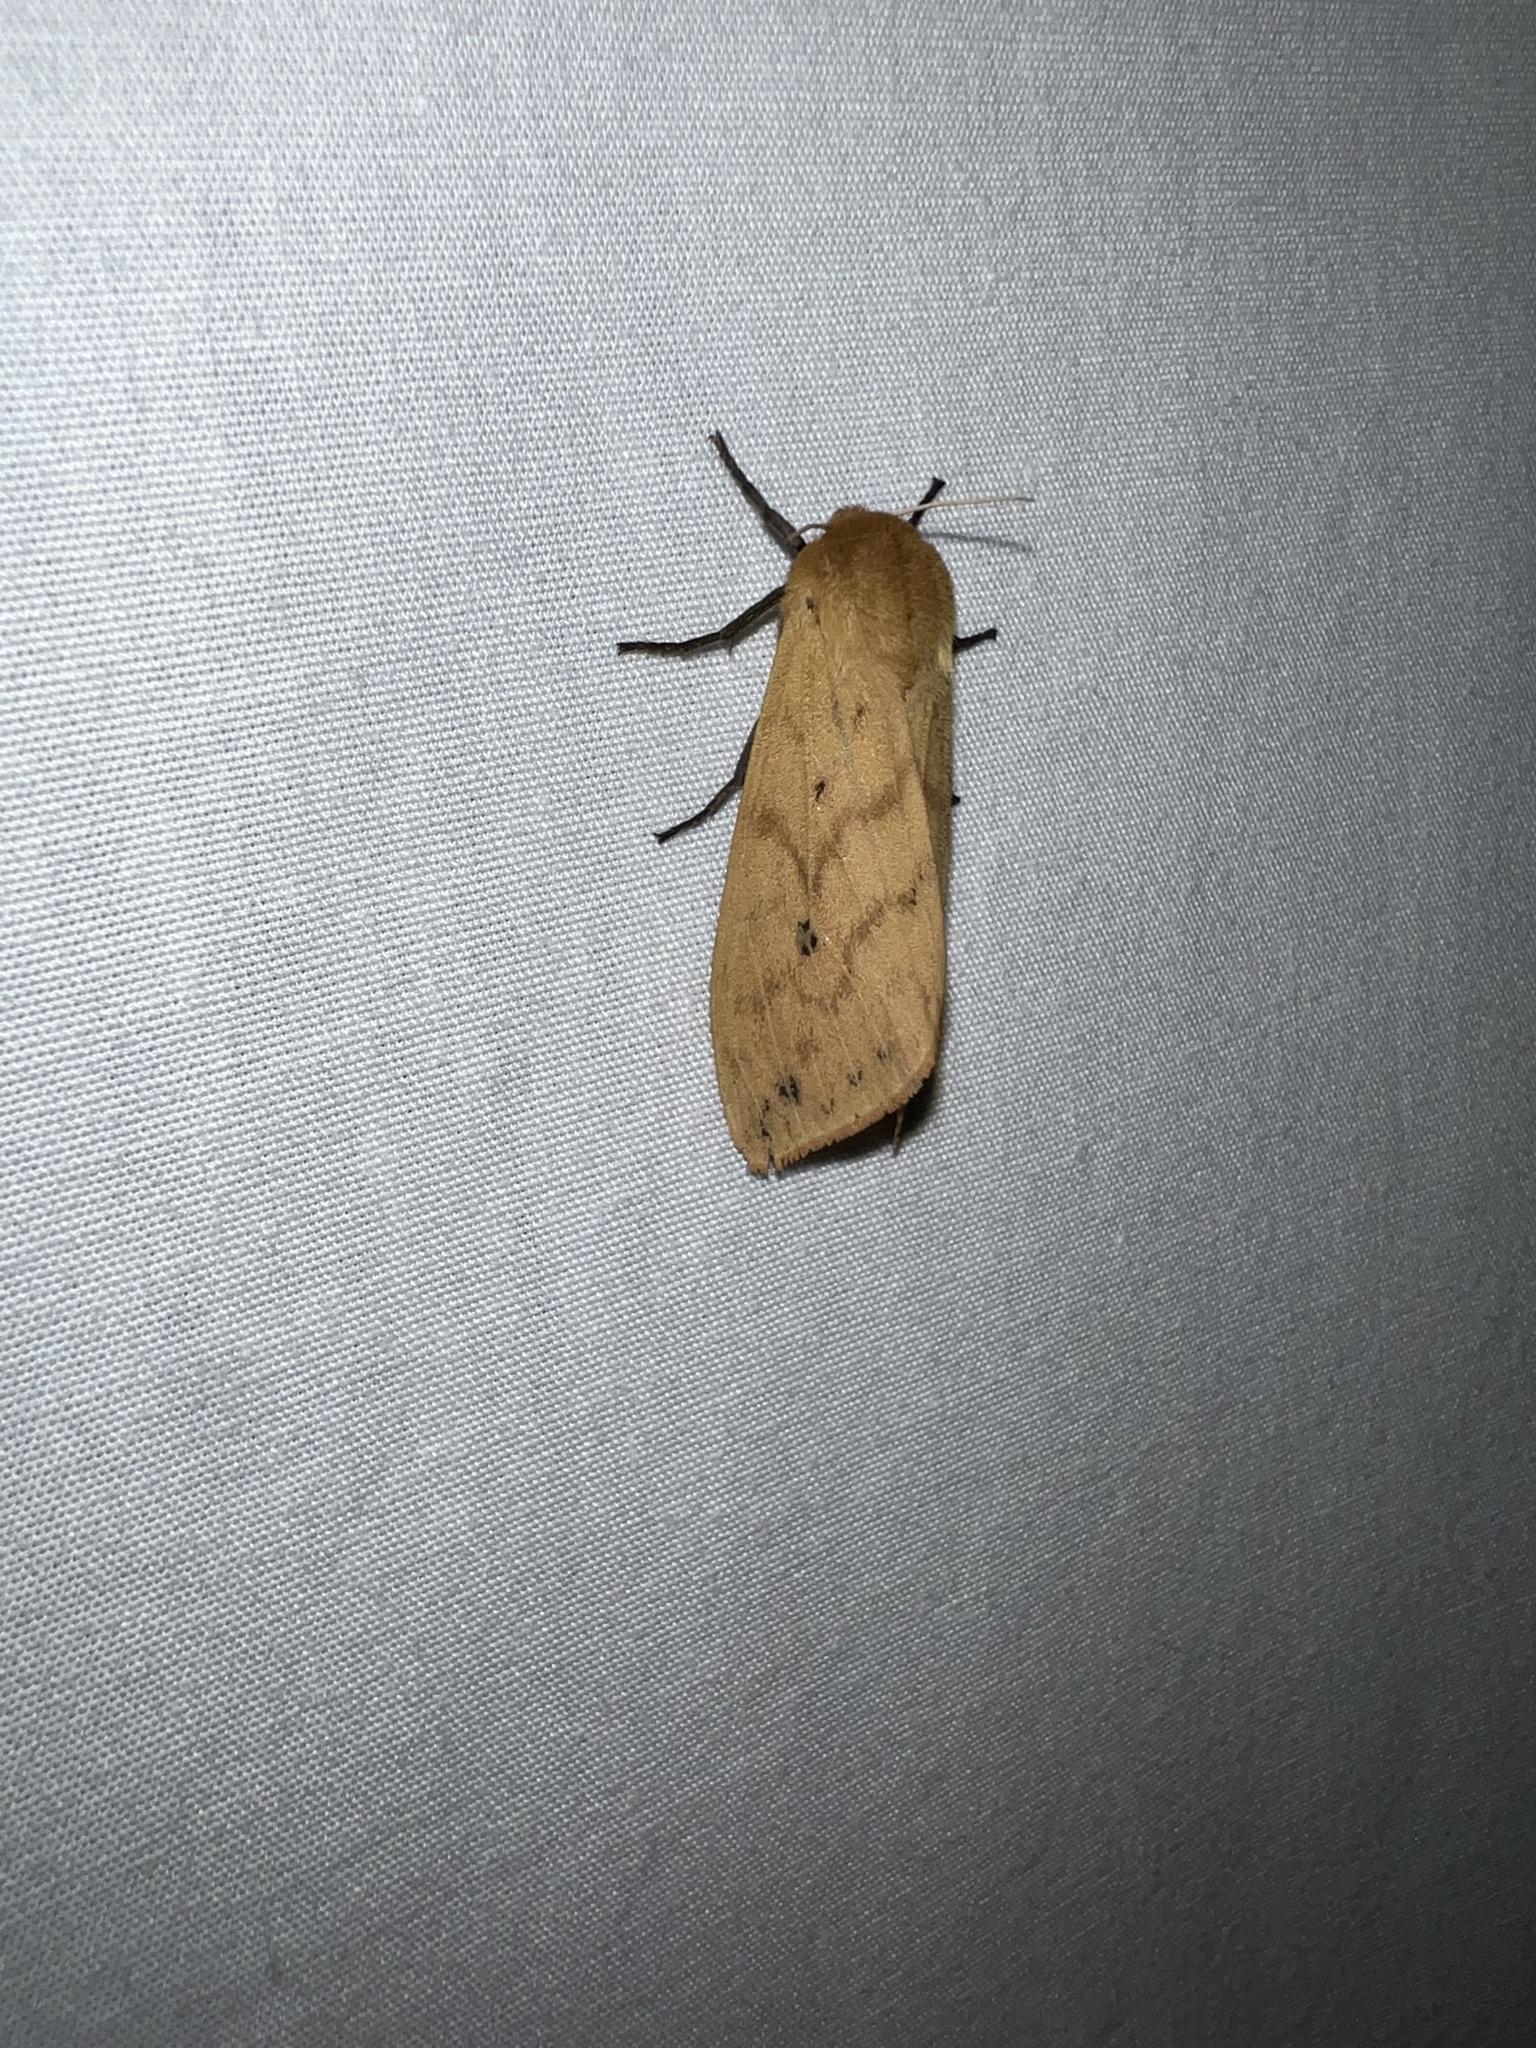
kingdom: Animalia
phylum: Arthropoda
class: Insecta
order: Lepidoptera
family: Erebidae
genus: Pyrrharctia
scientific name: Pyrrharctia isabella
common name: Isabella tiger moth
